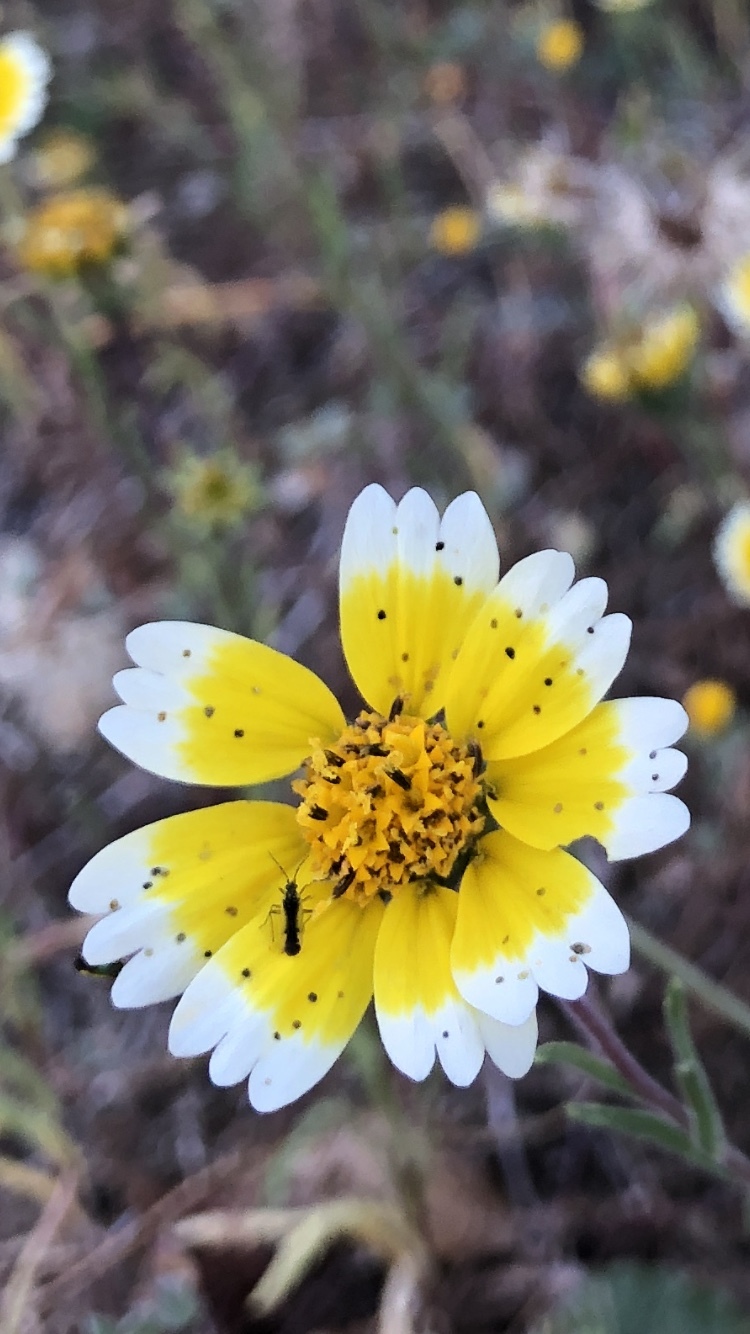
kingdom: Animalia
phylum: Arthropoda
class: Insecta
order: Hemiptera
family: Miridae
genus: Macrotylus
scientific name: Macrotylus dorsalis
